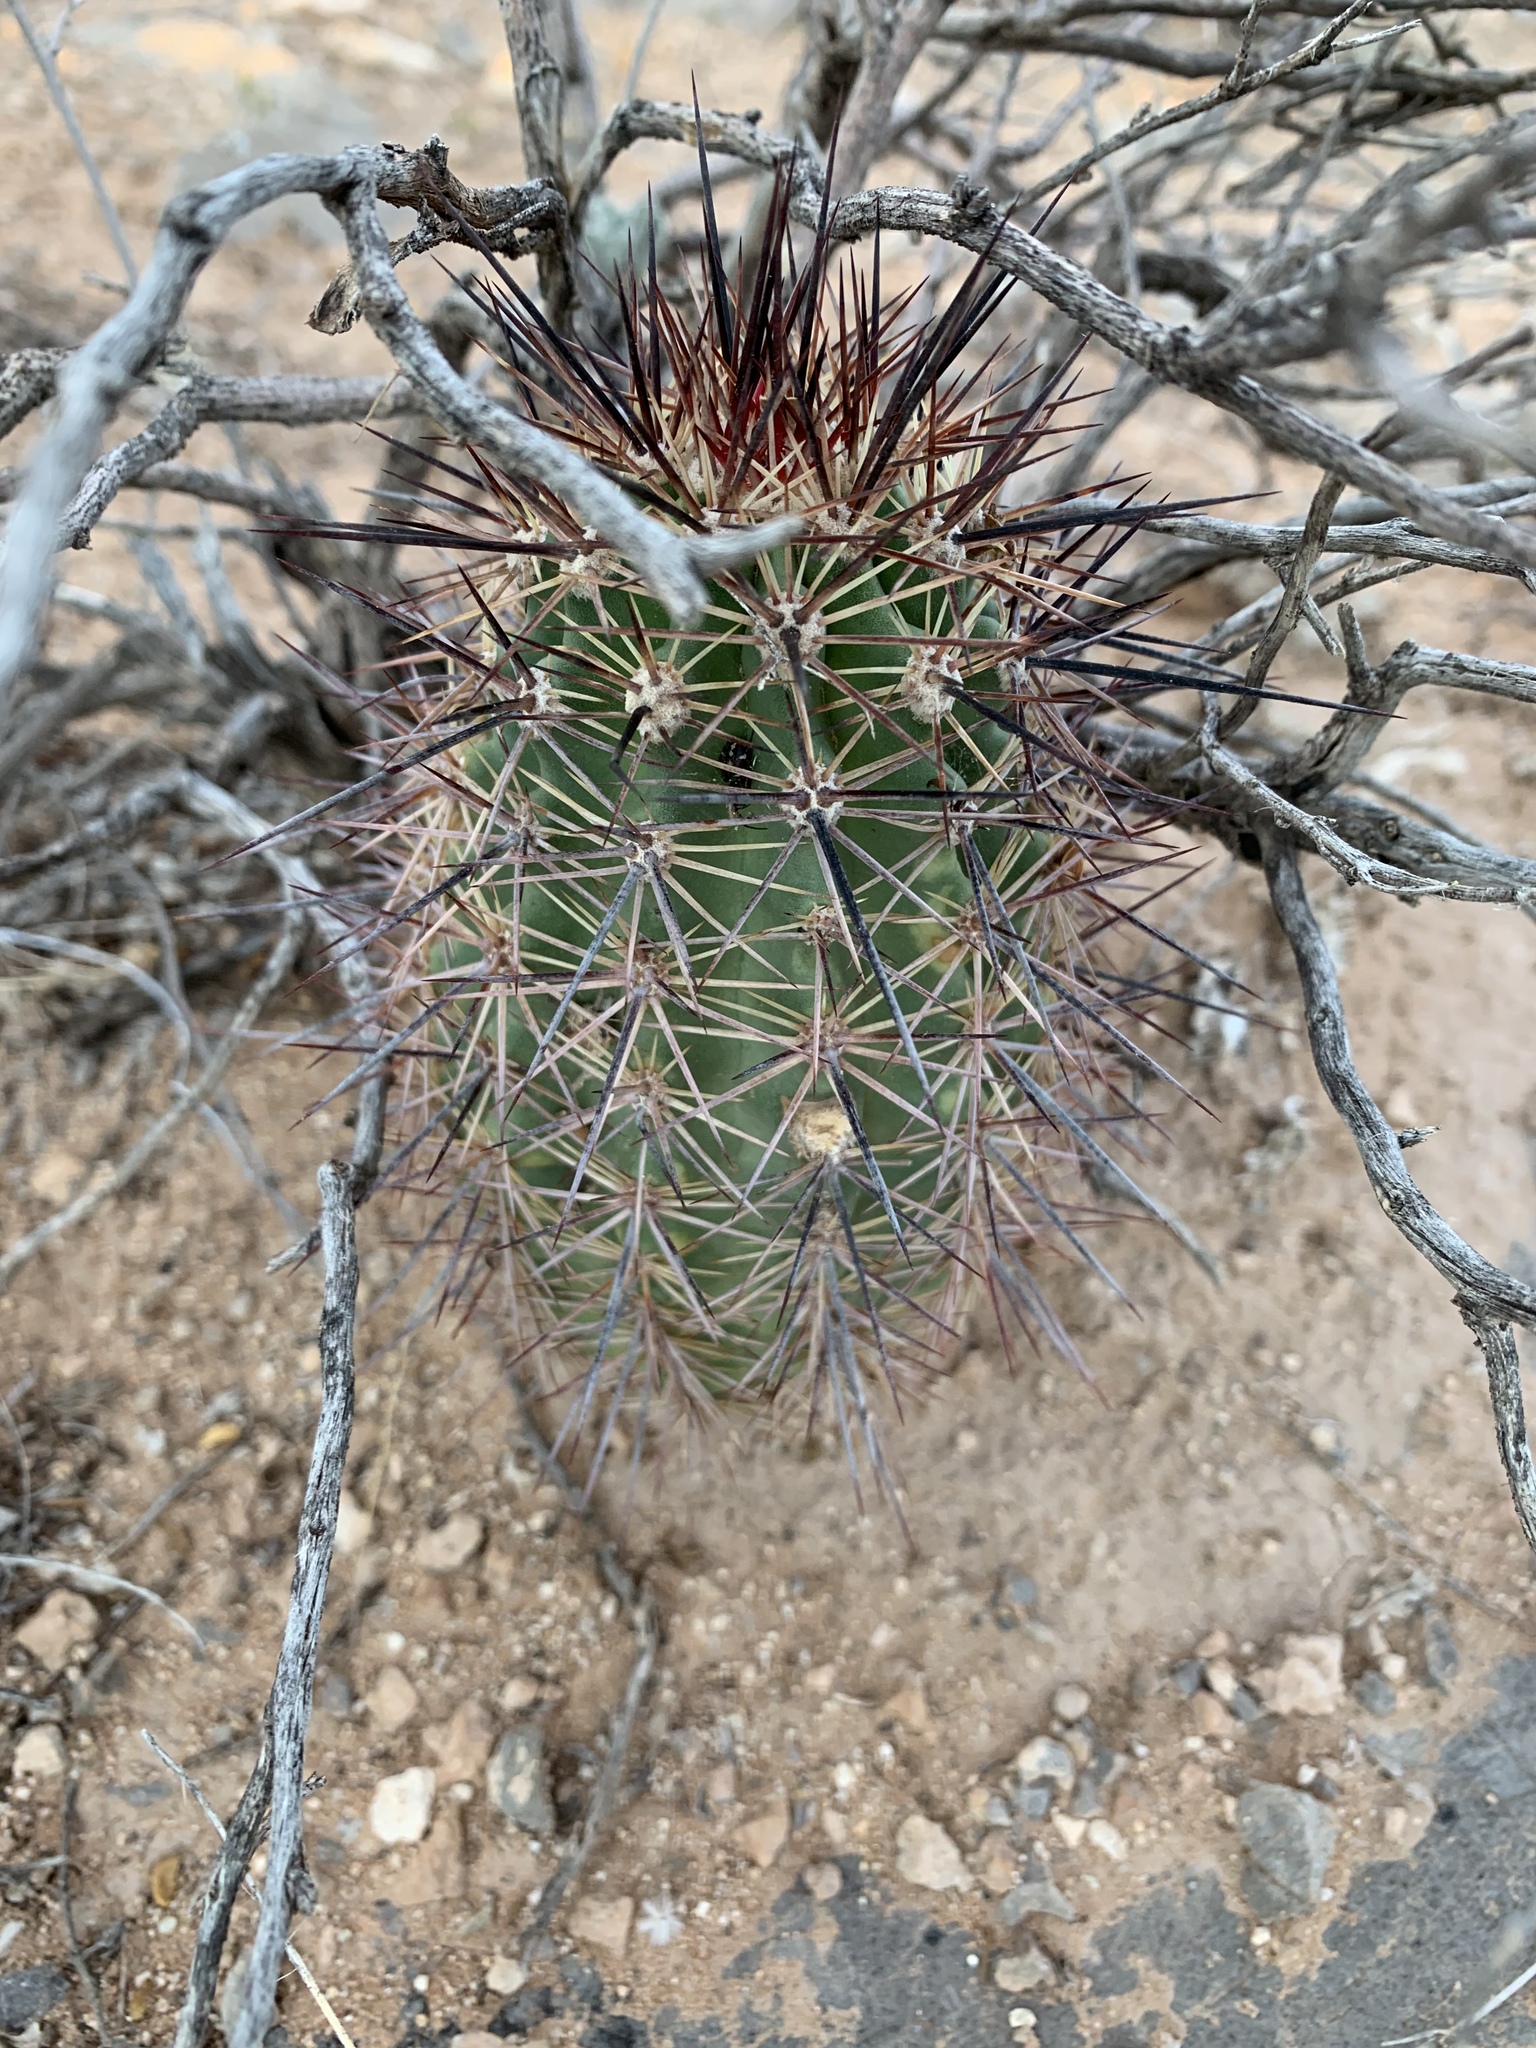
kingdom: Plantae
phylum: Tracheophyta
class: Magnoliopsida
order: Caryophyllales
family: Cactaceae
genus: Echinocereus
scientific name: Echinocereus coccineus
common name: Scarlet hedgehog cactus
